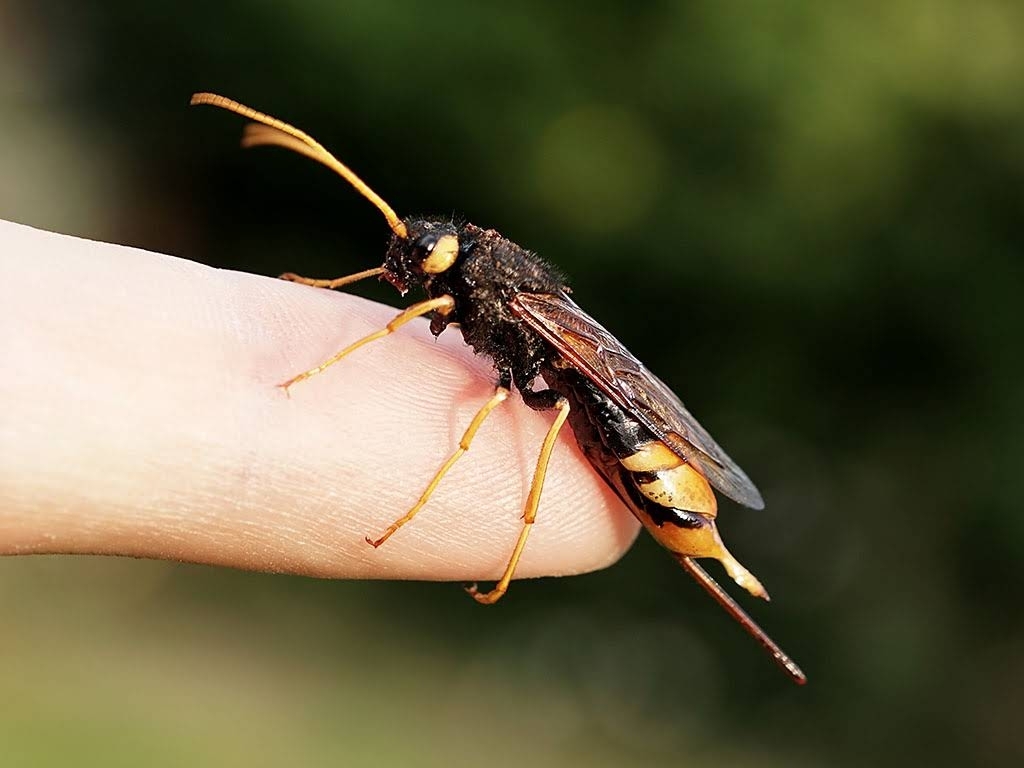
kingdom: Animalia
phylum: Arthropoda
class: Insecta
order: Hymenoptera
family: Siricidae
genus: Urocerus
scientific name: Urocerus gigas
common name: Giant woodwasp
